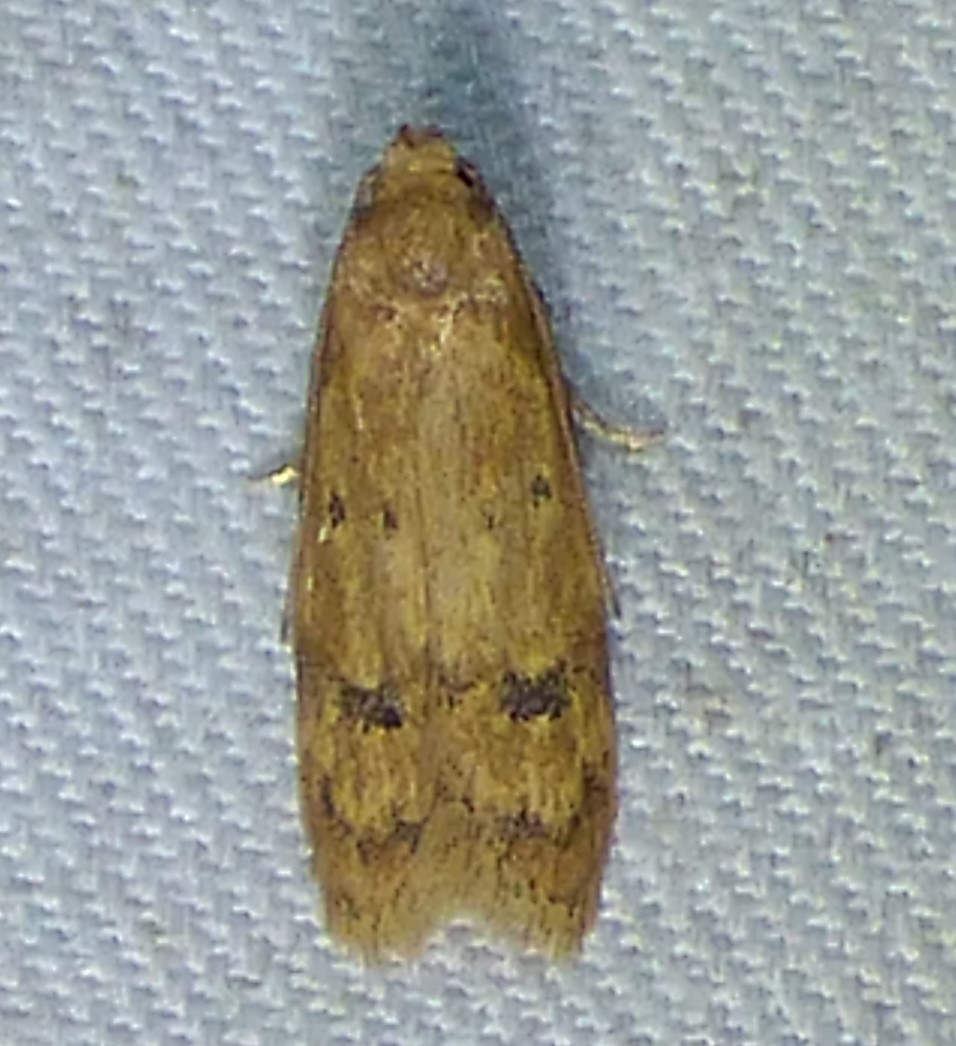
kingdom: Animalia
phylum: Arthropoda
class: Insecta
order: Lepidoptera
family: Autostichidae
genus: Gerdana
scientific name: Gerdana caritella
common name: Gerdana moth
